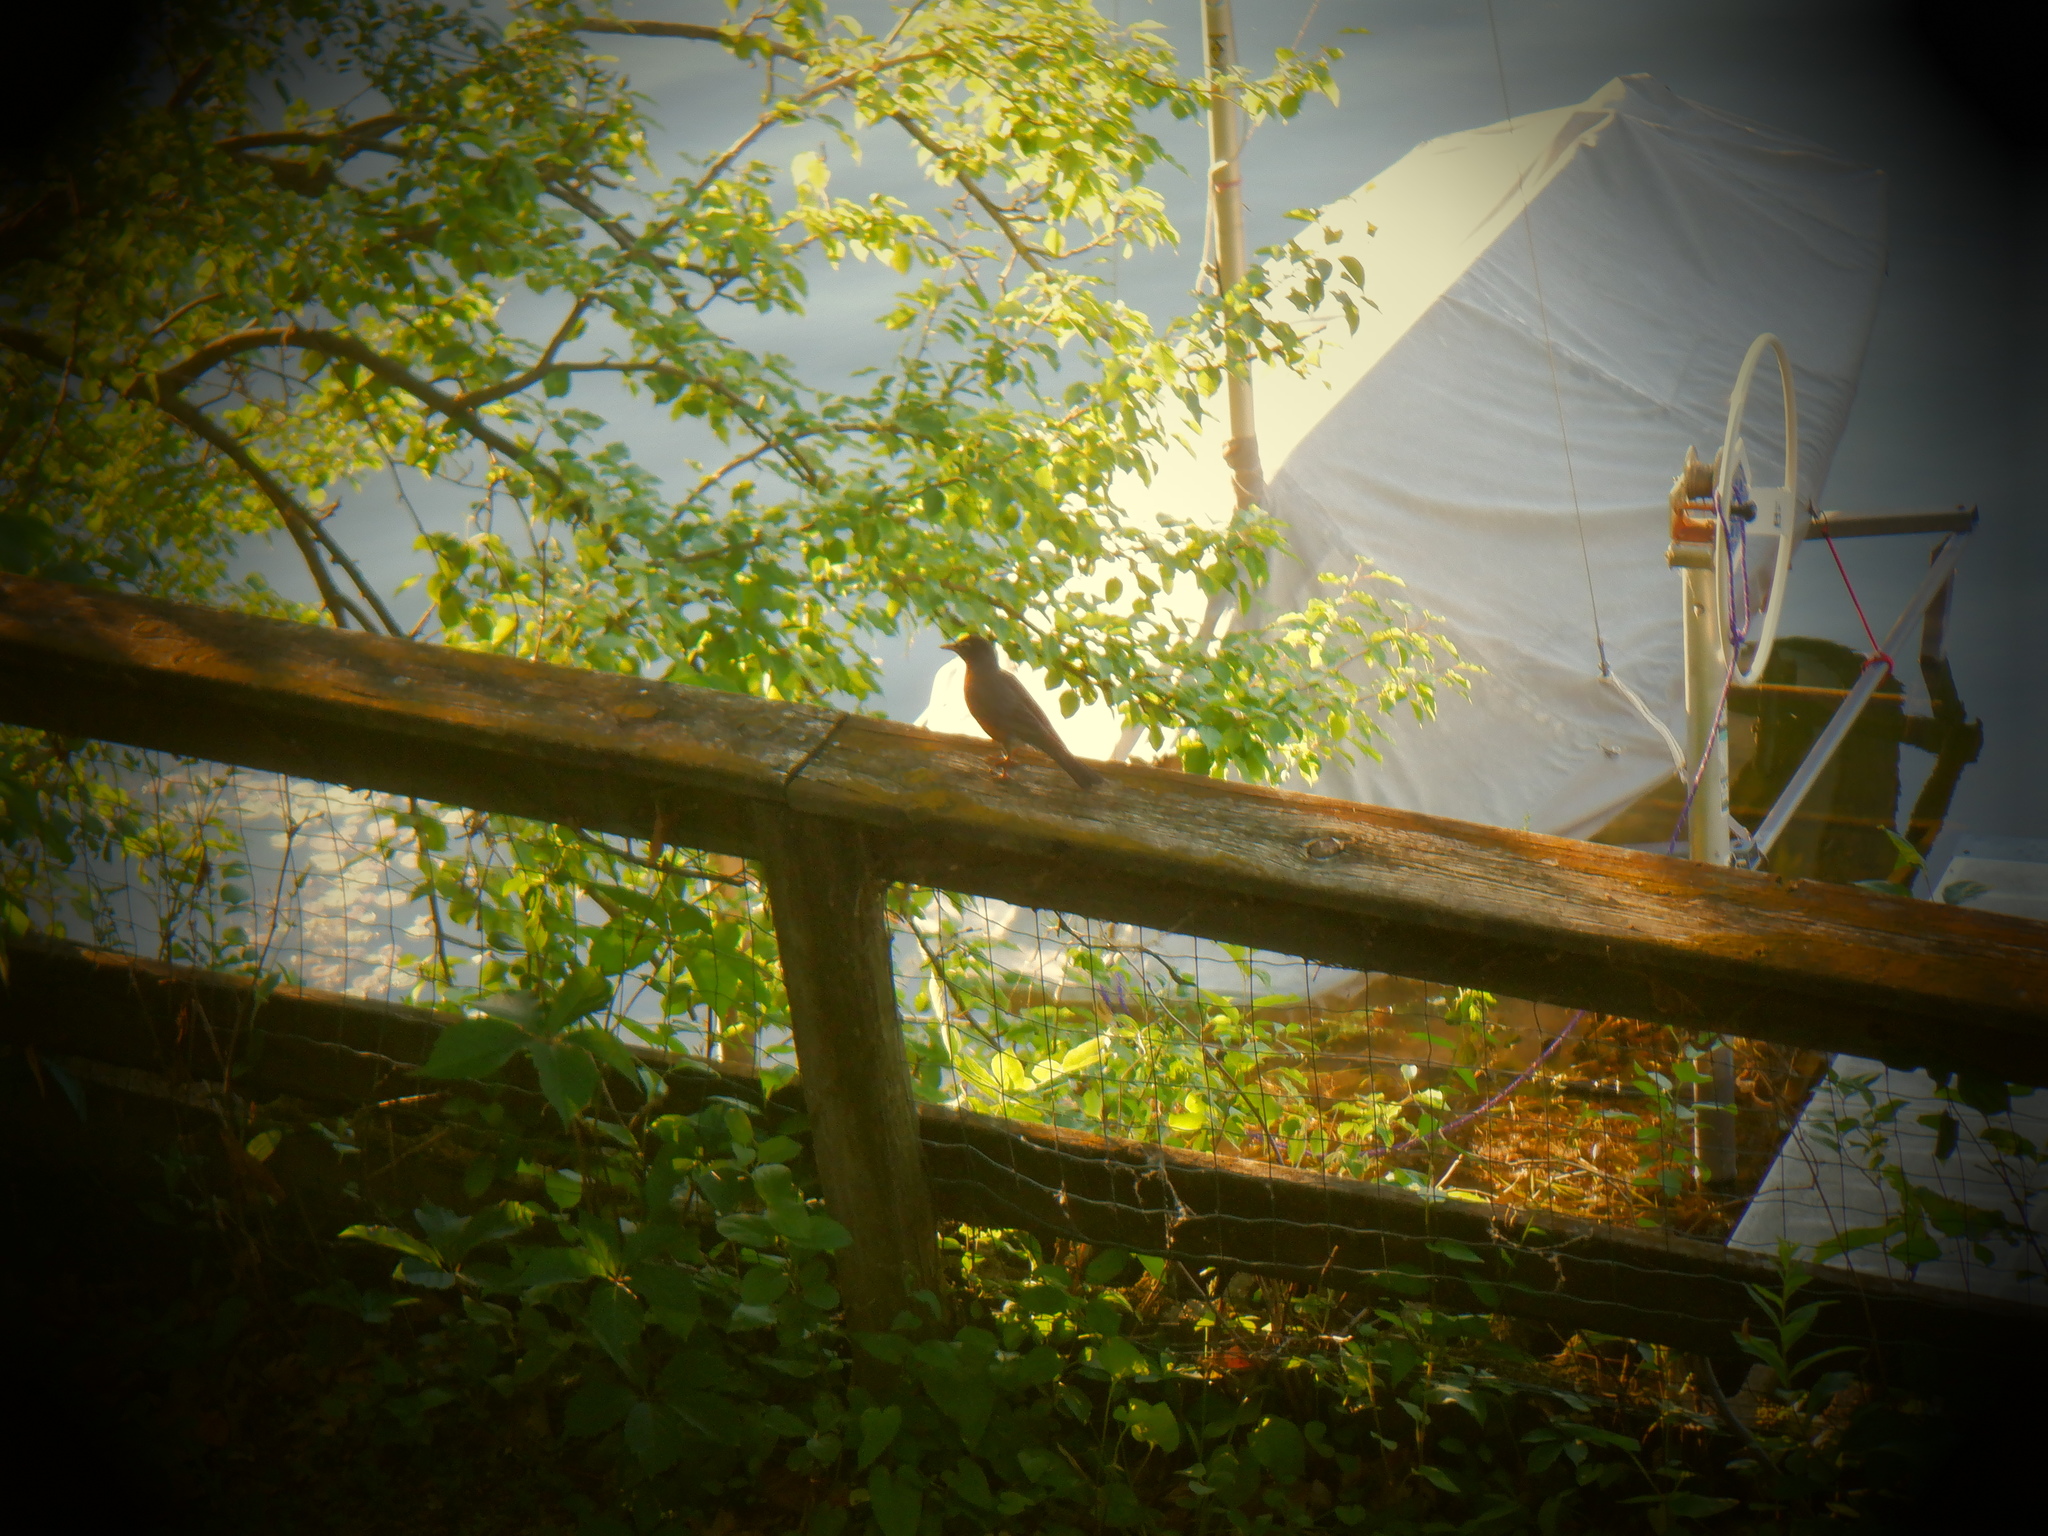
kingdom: Animalia
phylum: Chordata
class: Aves
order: Passeriformes
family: Turdidae
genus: Turdus
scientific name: Turdus migratorius
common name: American robin
